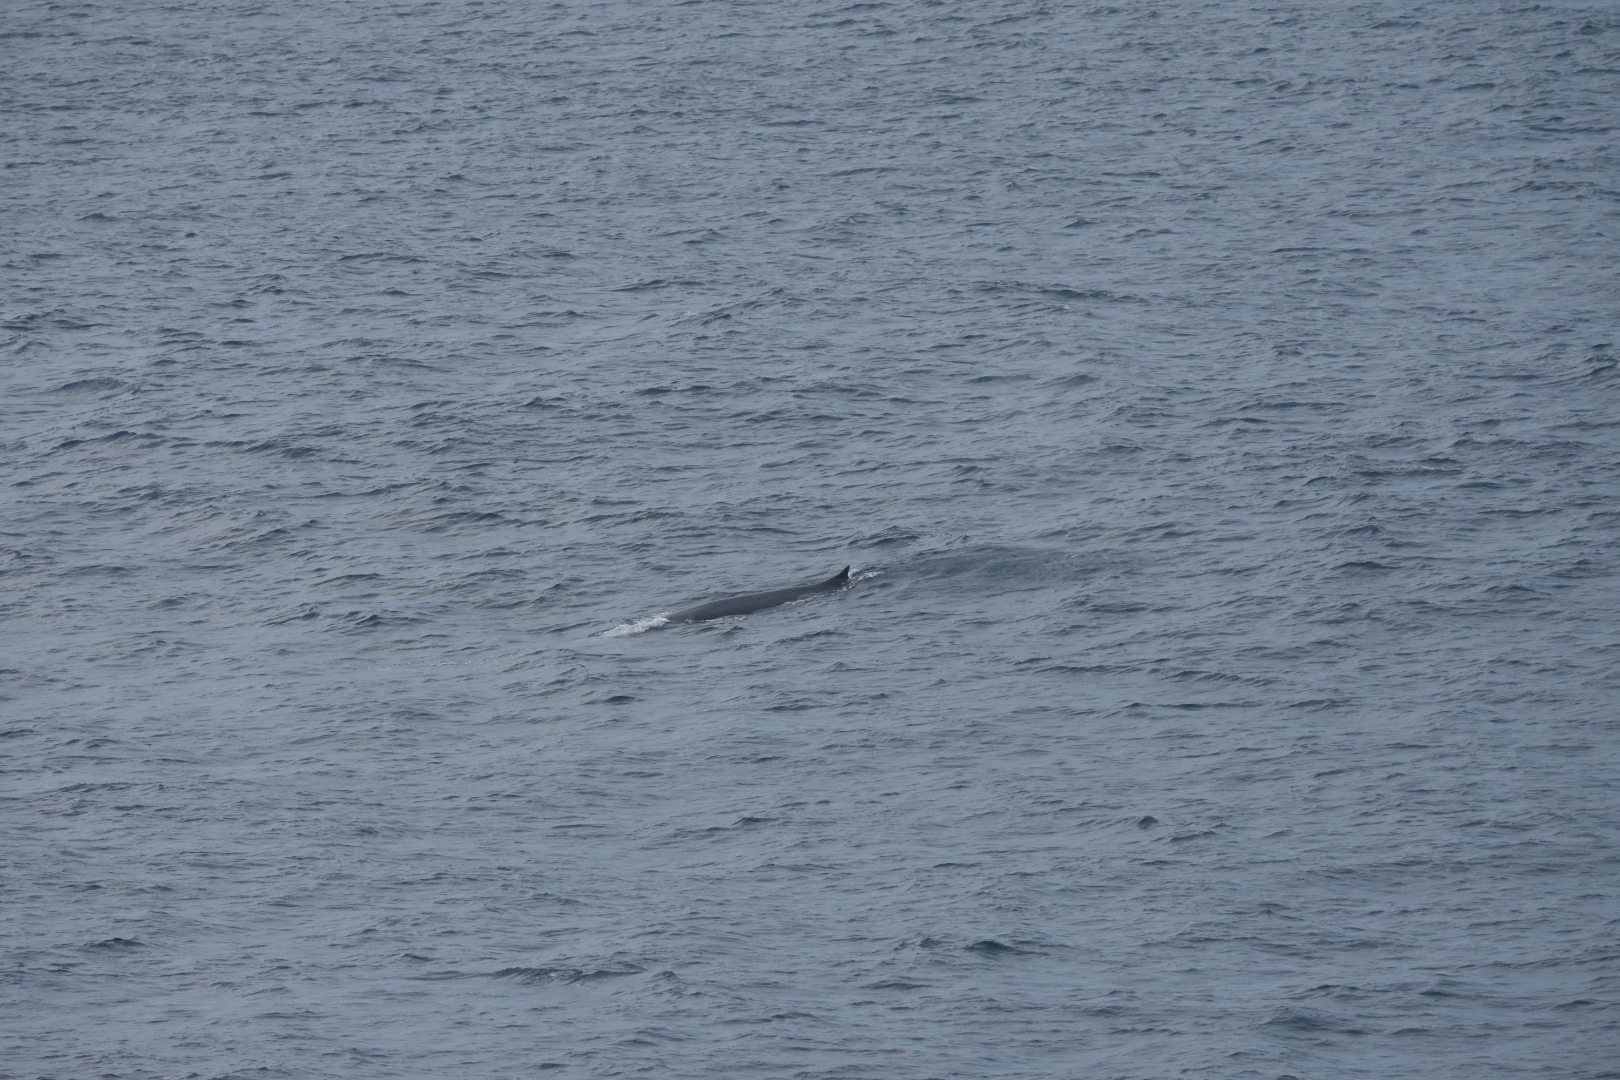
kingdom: Animalia
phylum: Chordata
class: Mammalia
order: Cetacea
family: Balaenopteridae
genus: Balaenoptera
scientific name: Balaenoptera physalus
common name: Fin whale
